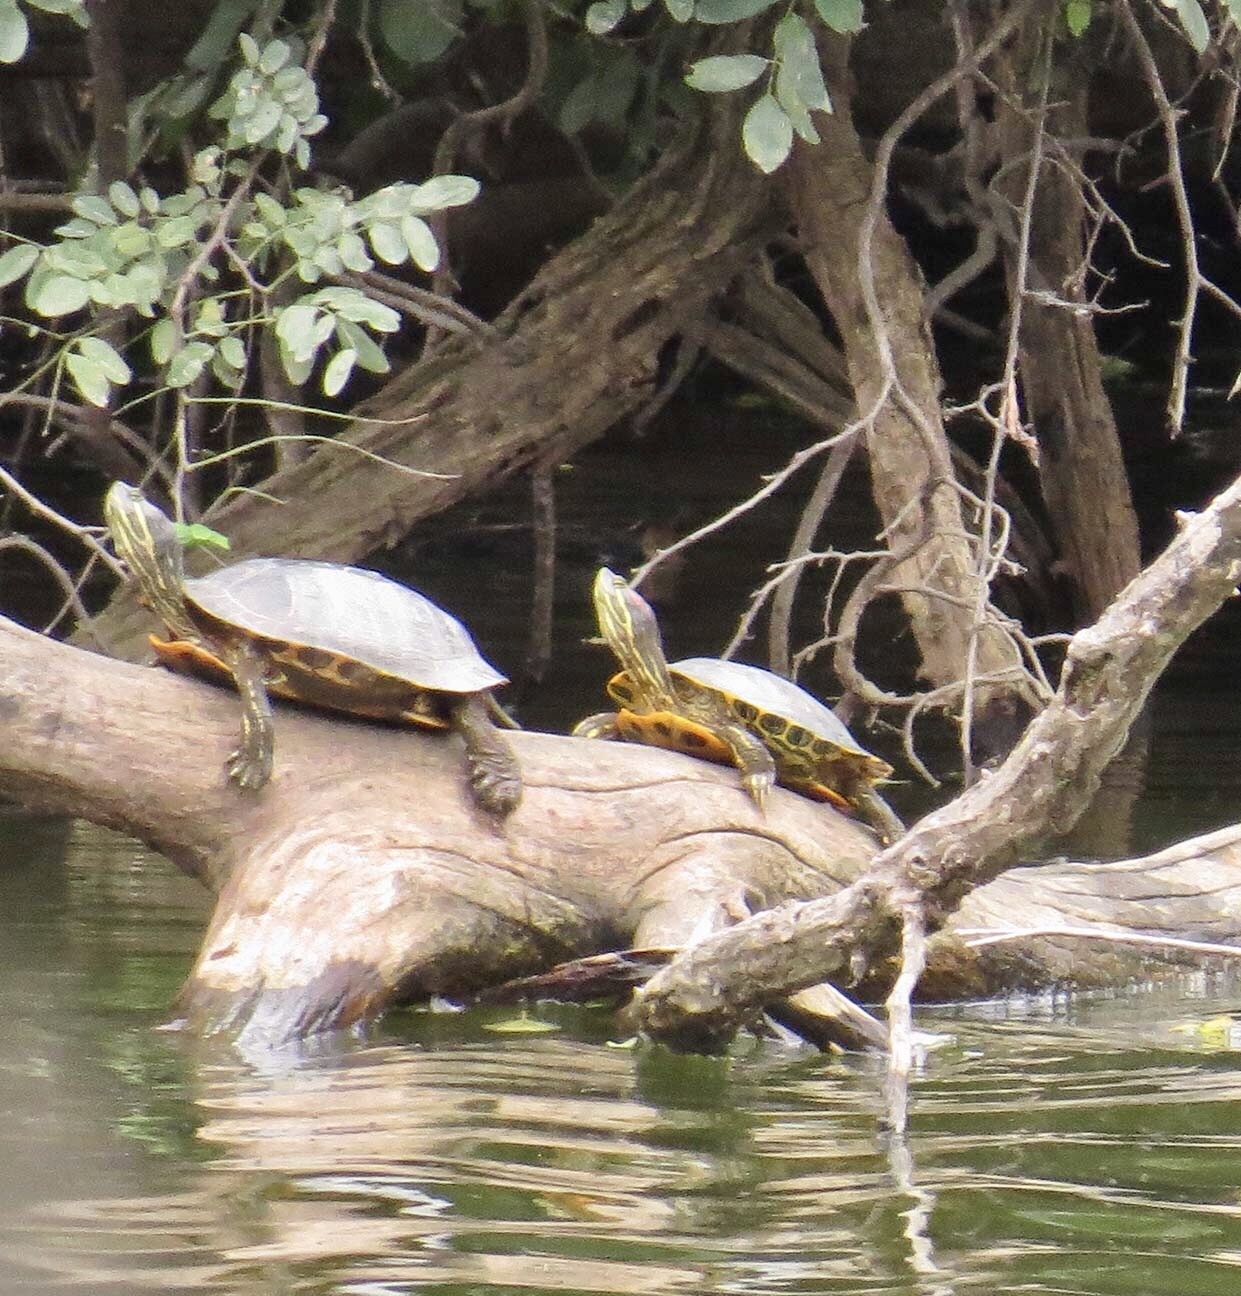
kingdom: Animalia
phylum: Chordata
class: Testudines
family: Emydidae
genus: Trachemys
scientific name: Trachemys scripta
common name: Slider
